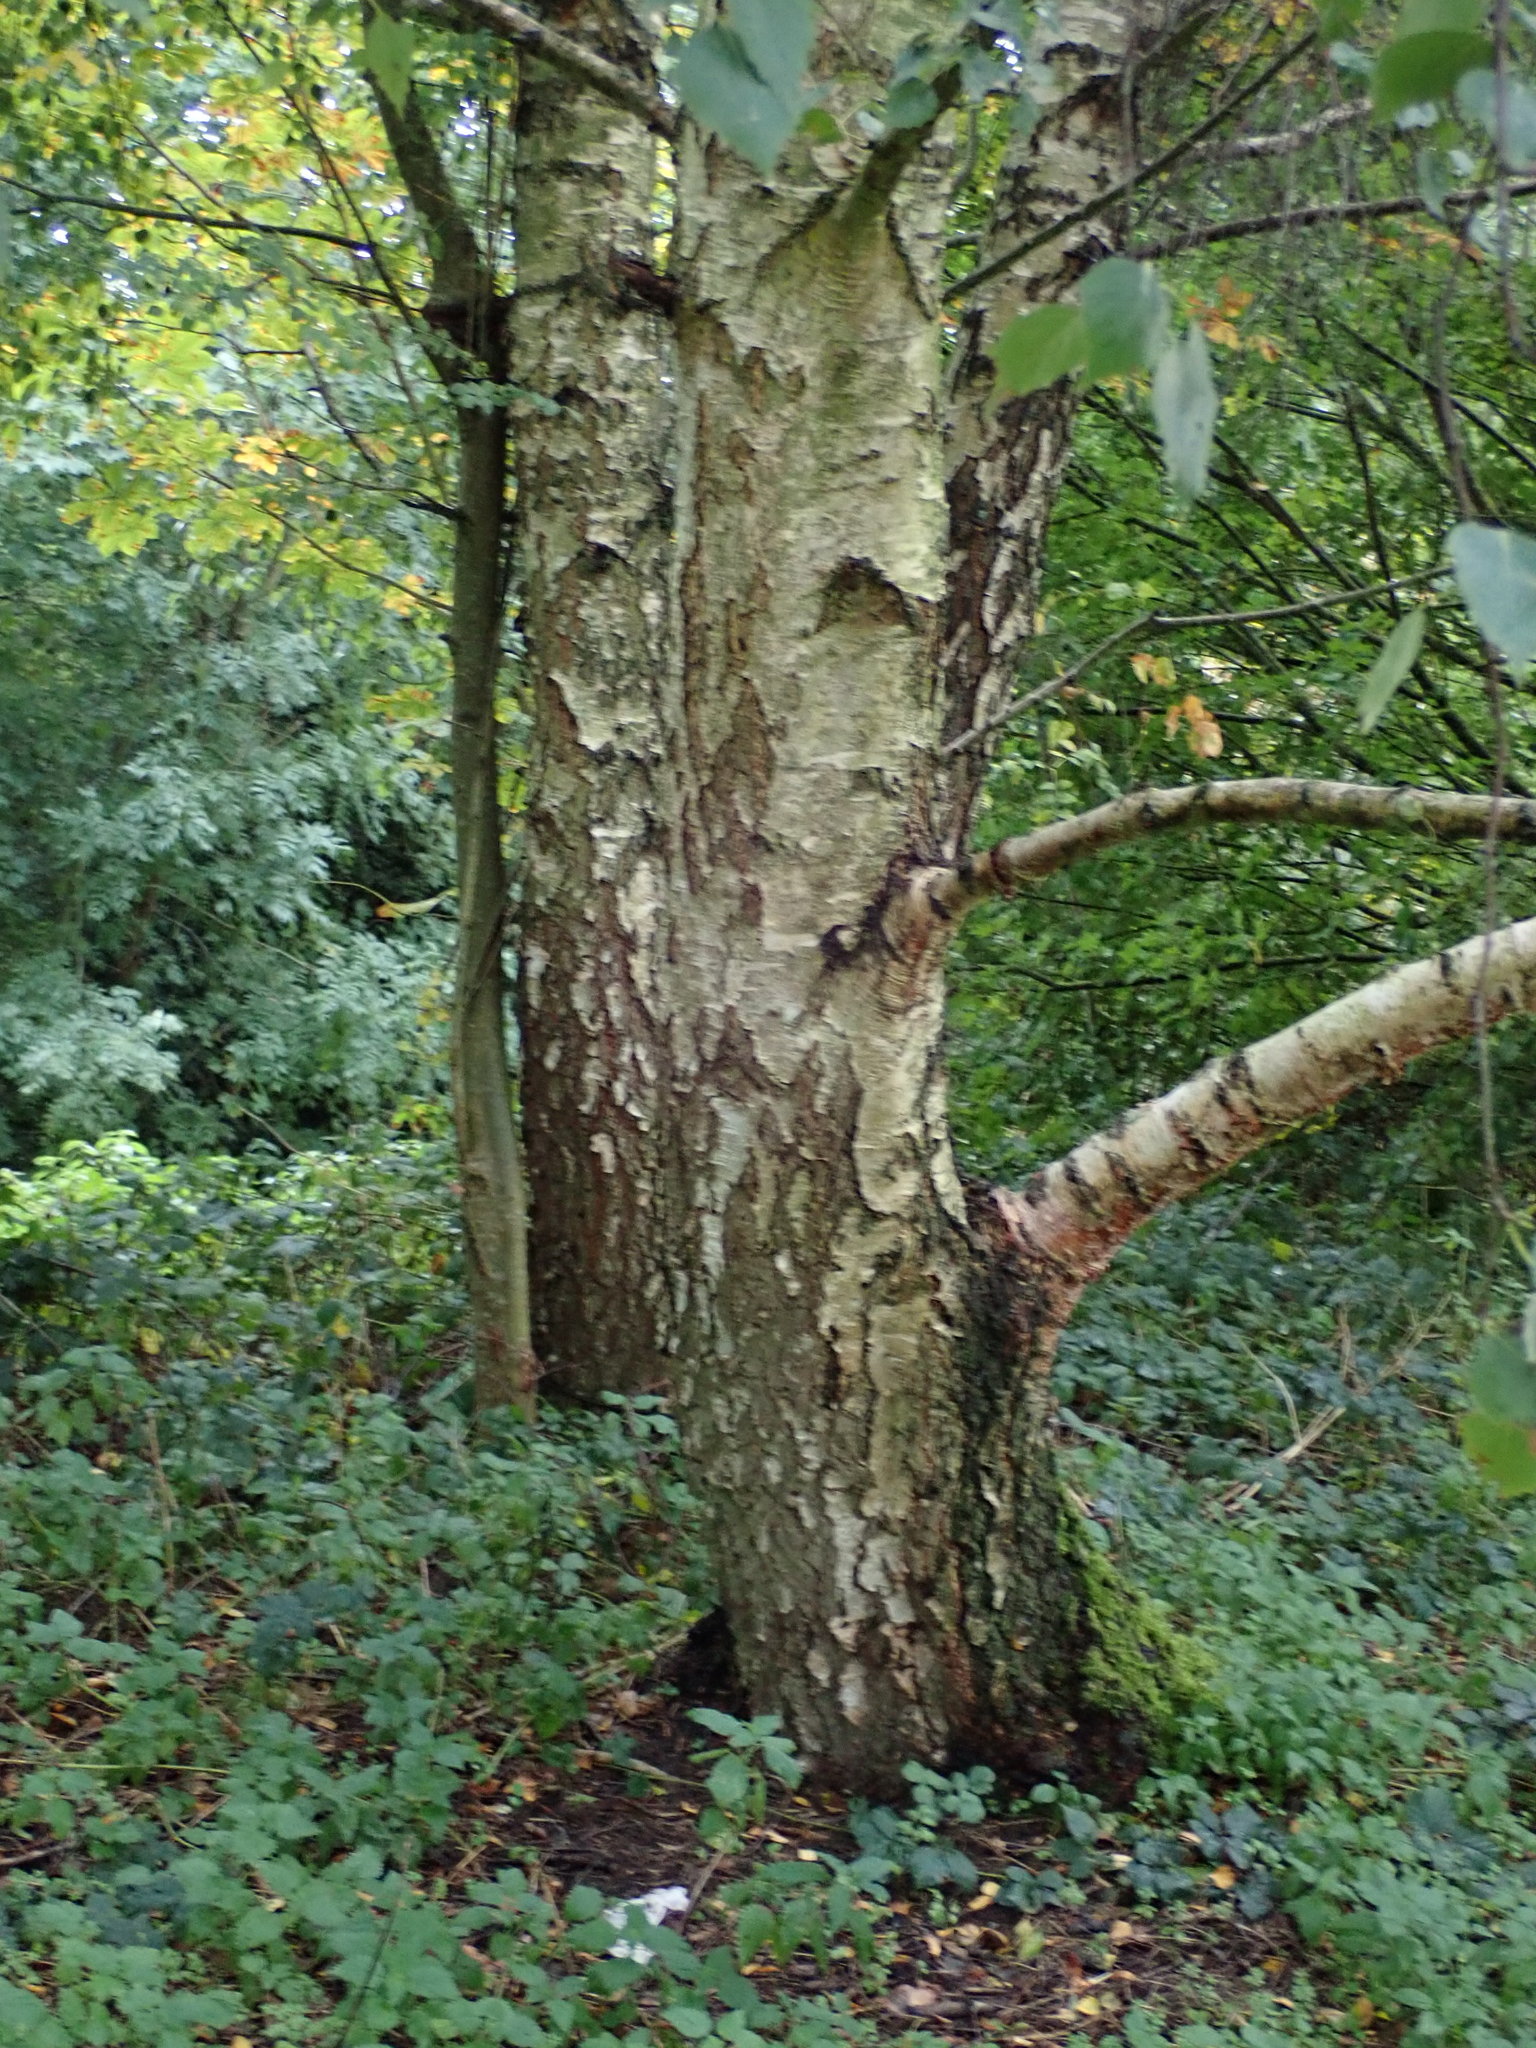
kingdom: Plantae
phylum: Tracheophyta
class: Magnoliopsida
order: Fagales
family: Betulaceae
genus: Betula
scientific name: Betula pendula
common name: Silver birch
